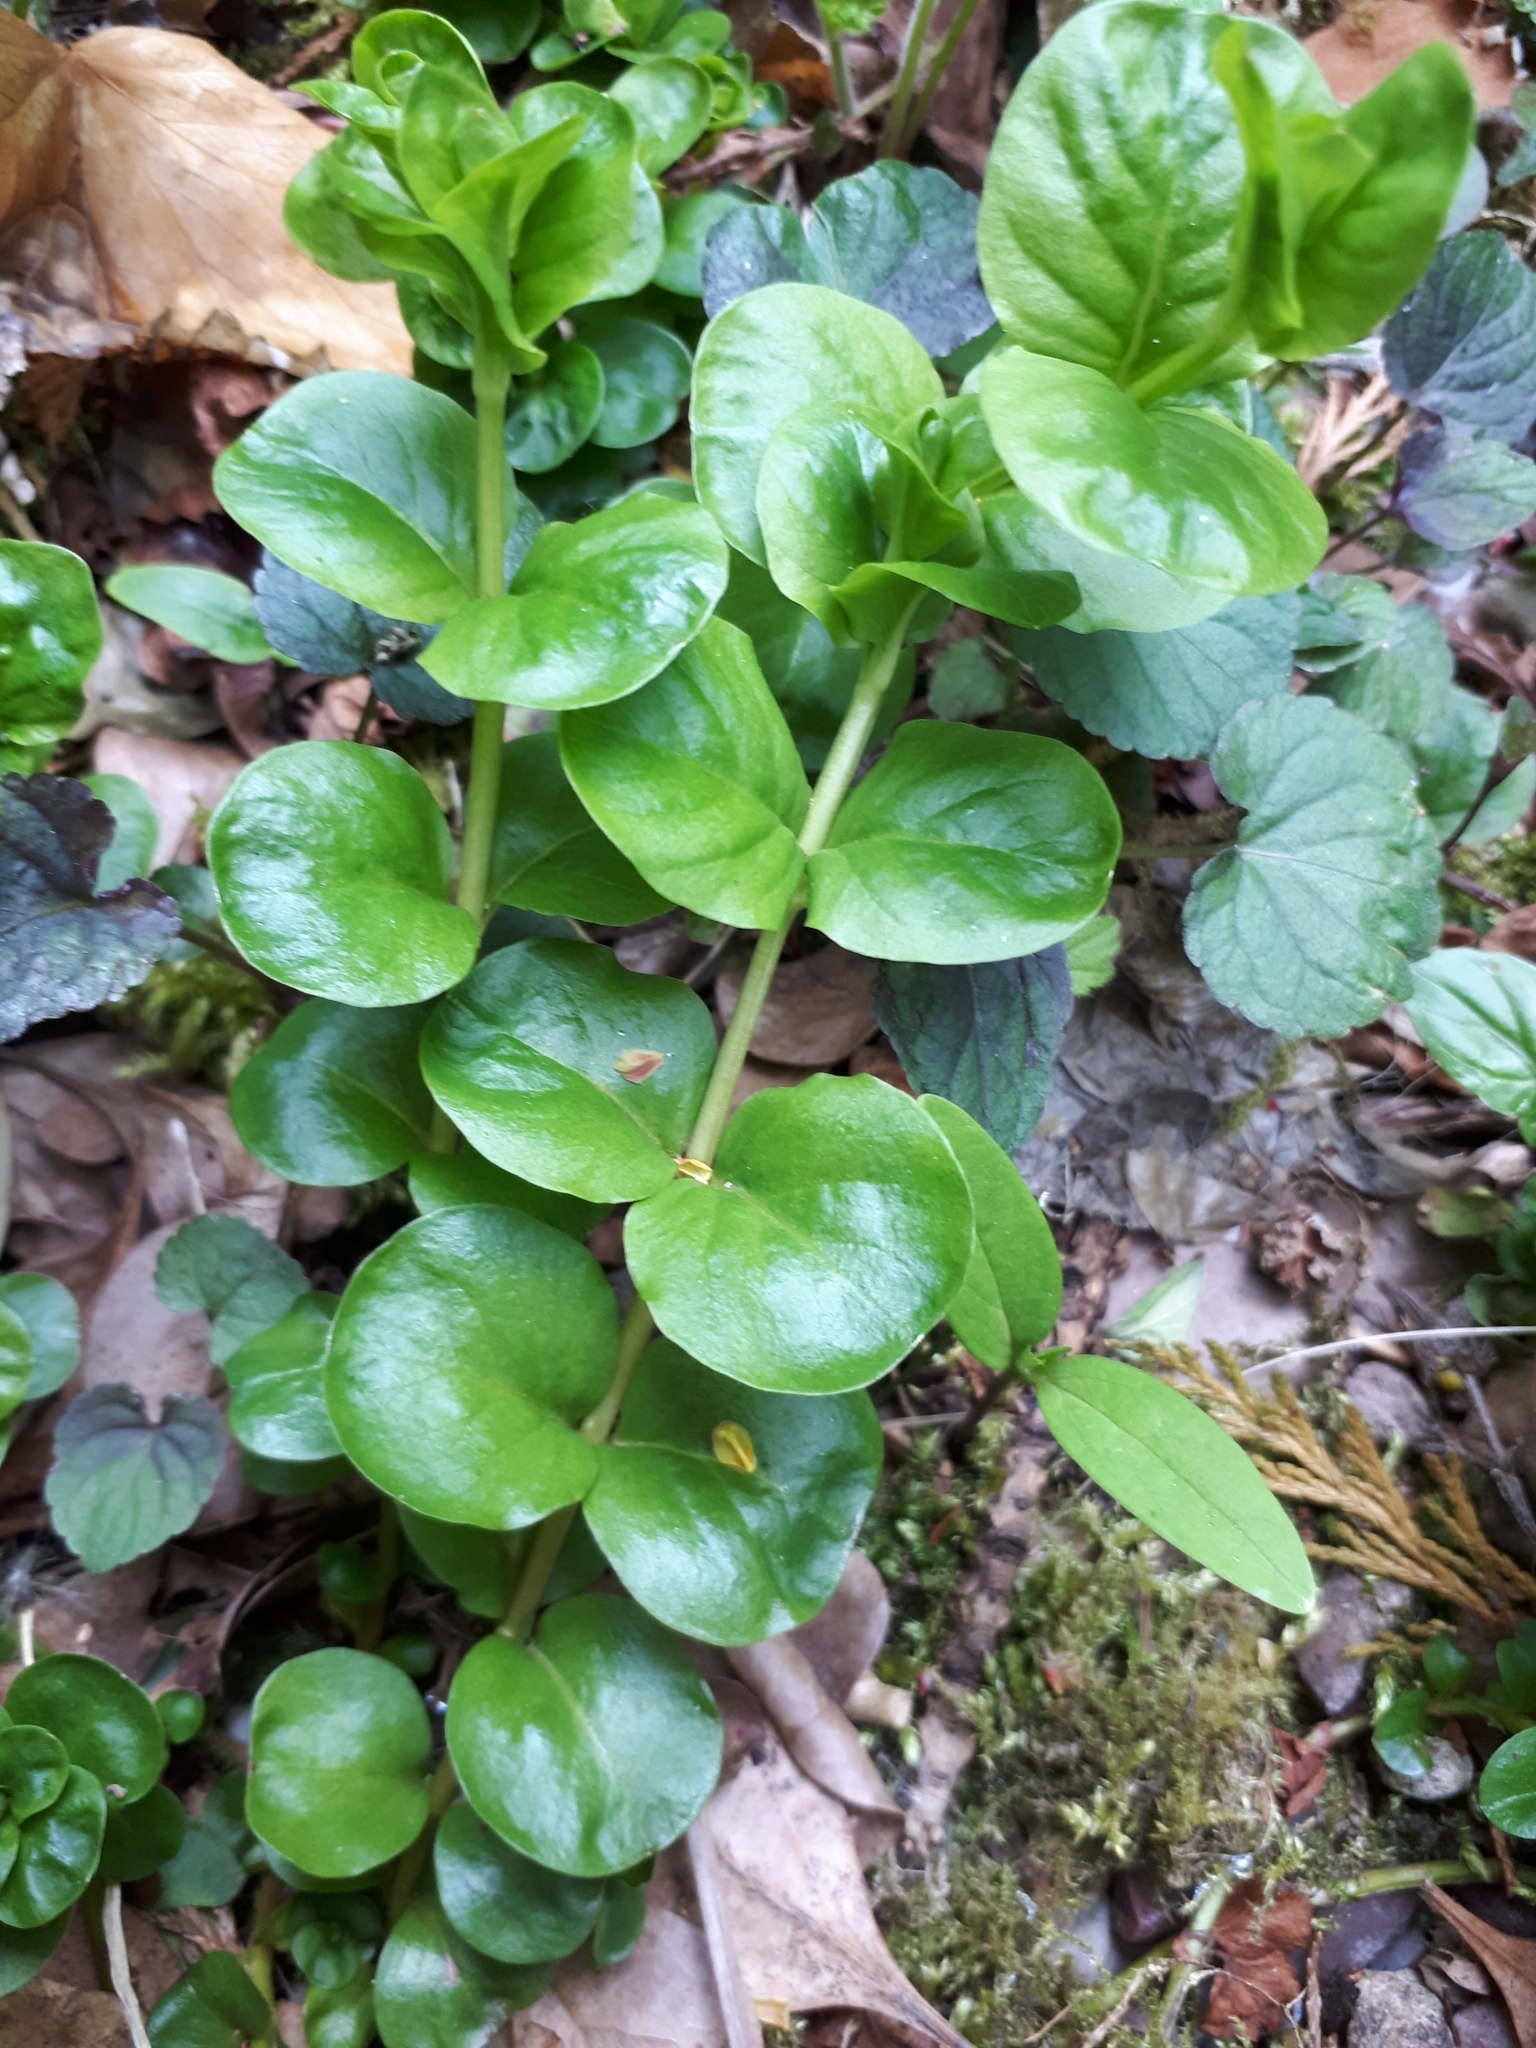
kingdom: Plantae
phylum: Tracheophyta
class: Magnoliopsida
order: Ericales
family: Primulaceae
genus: Lysimachia
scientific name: Lysimachia nummularia
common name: Moneywort
